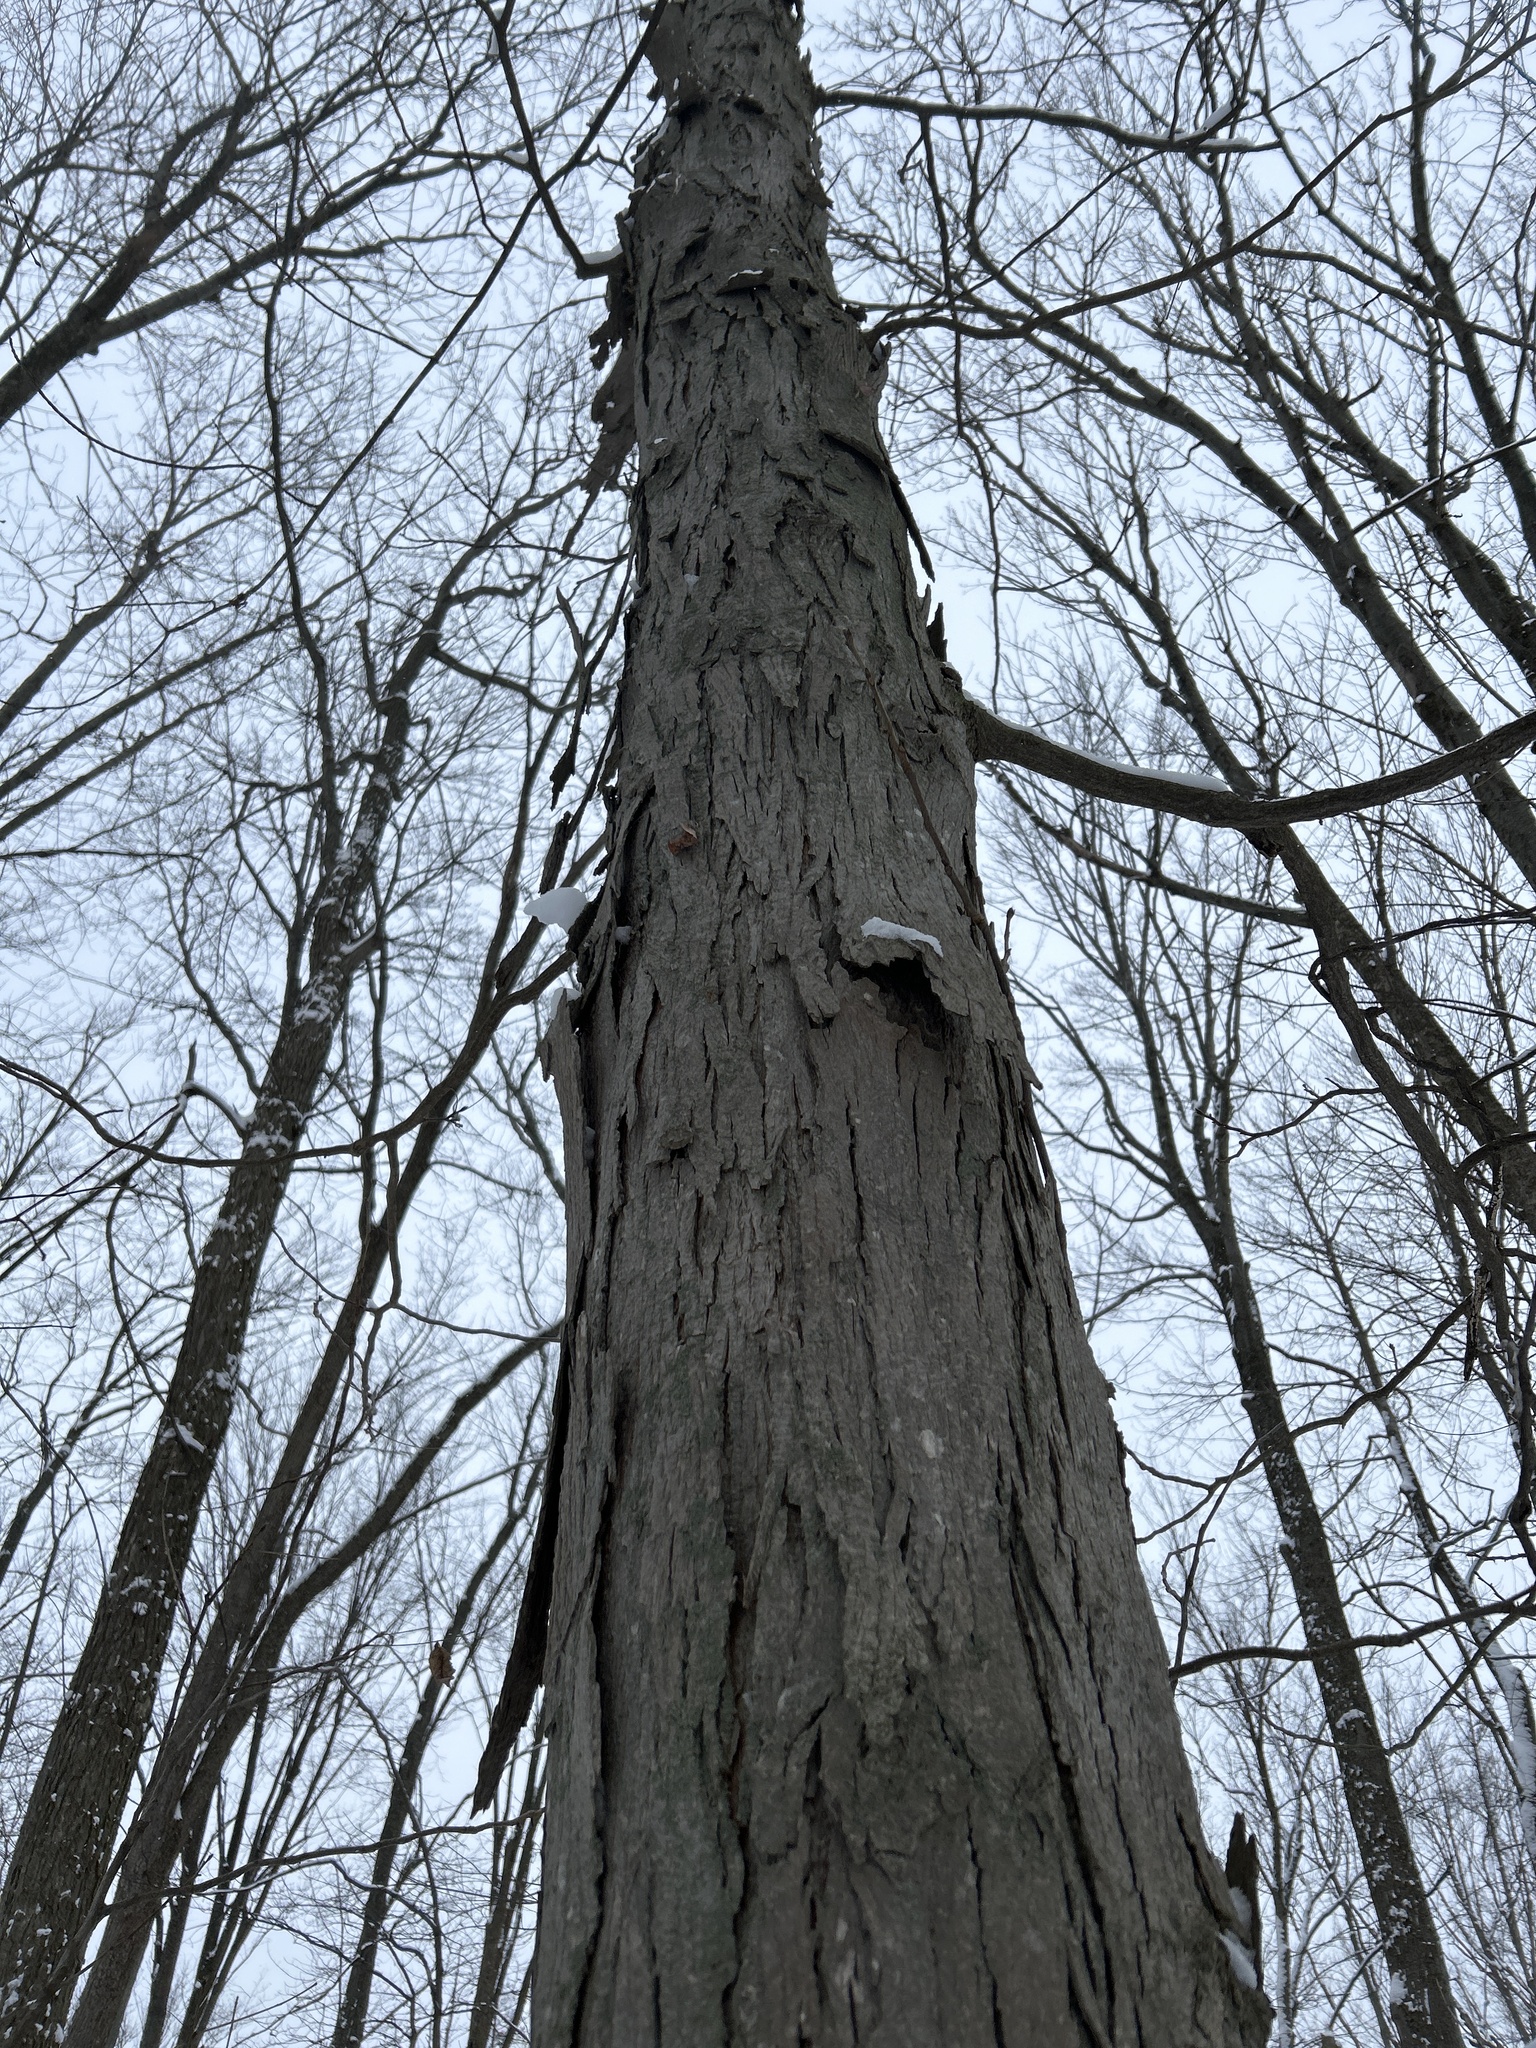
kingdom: Plantae
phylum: Tracheophyta
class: Magnoliopsida
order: Fagales
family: Juglandaceae
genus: Carya
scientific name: Carya ovata
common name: Shagbark hickory
